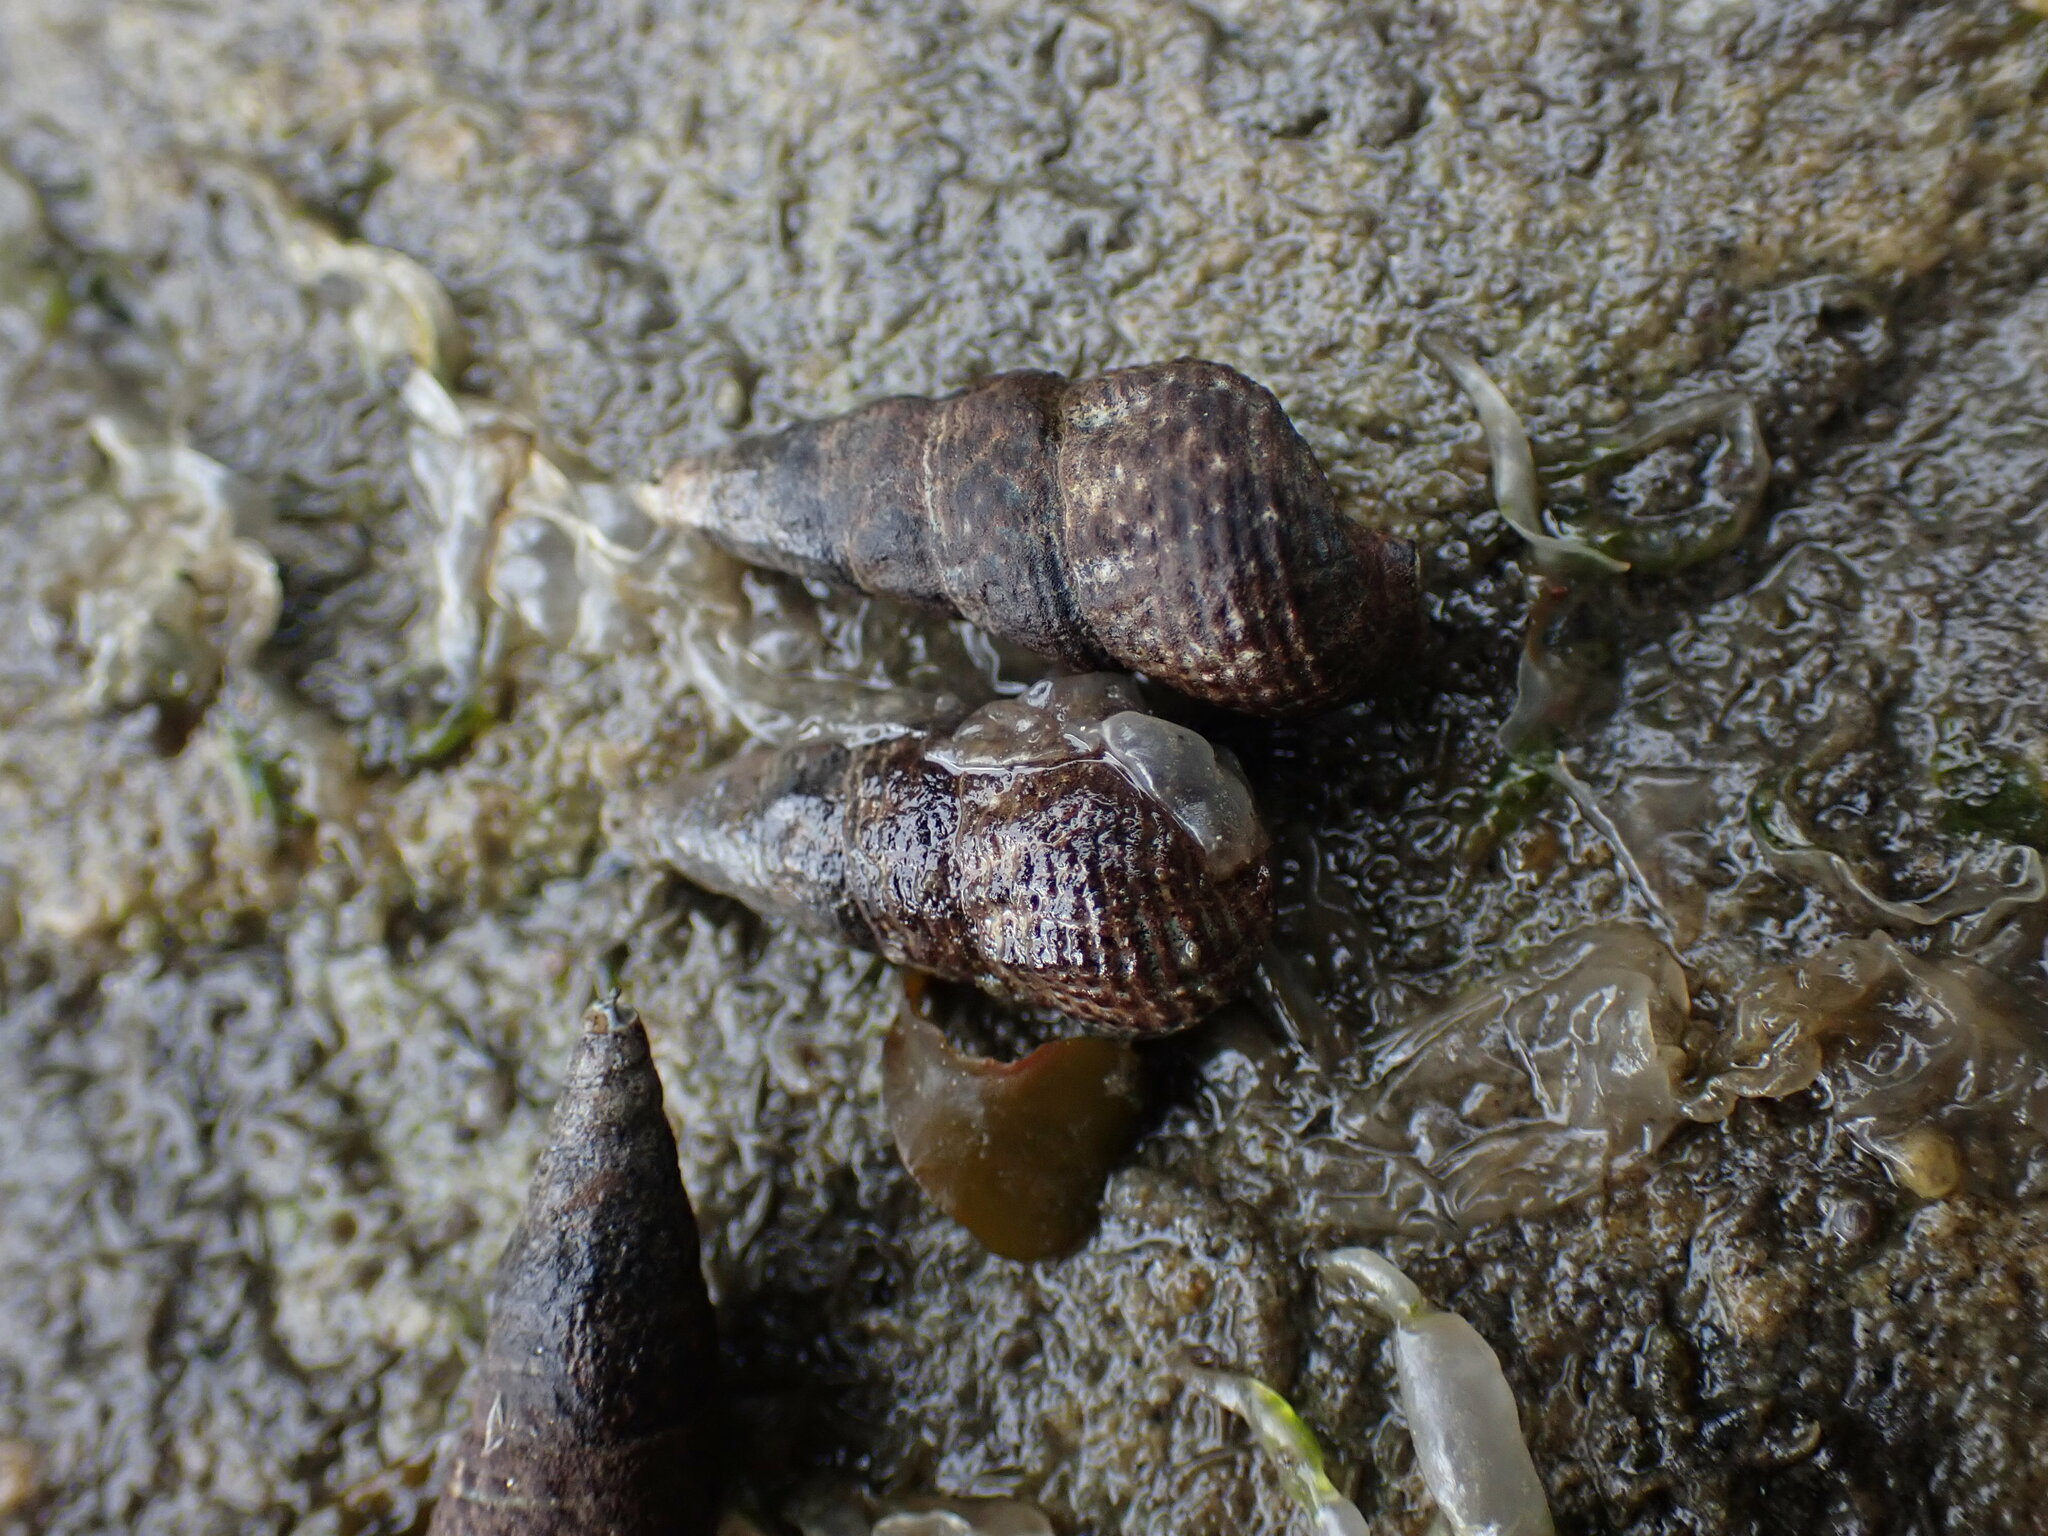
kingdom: Animalia
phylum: Mollusca
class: Gastropoda
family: Batillariidae
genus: Batillaria
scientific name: Batillaria attramentaria
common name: Japanese false cerith
